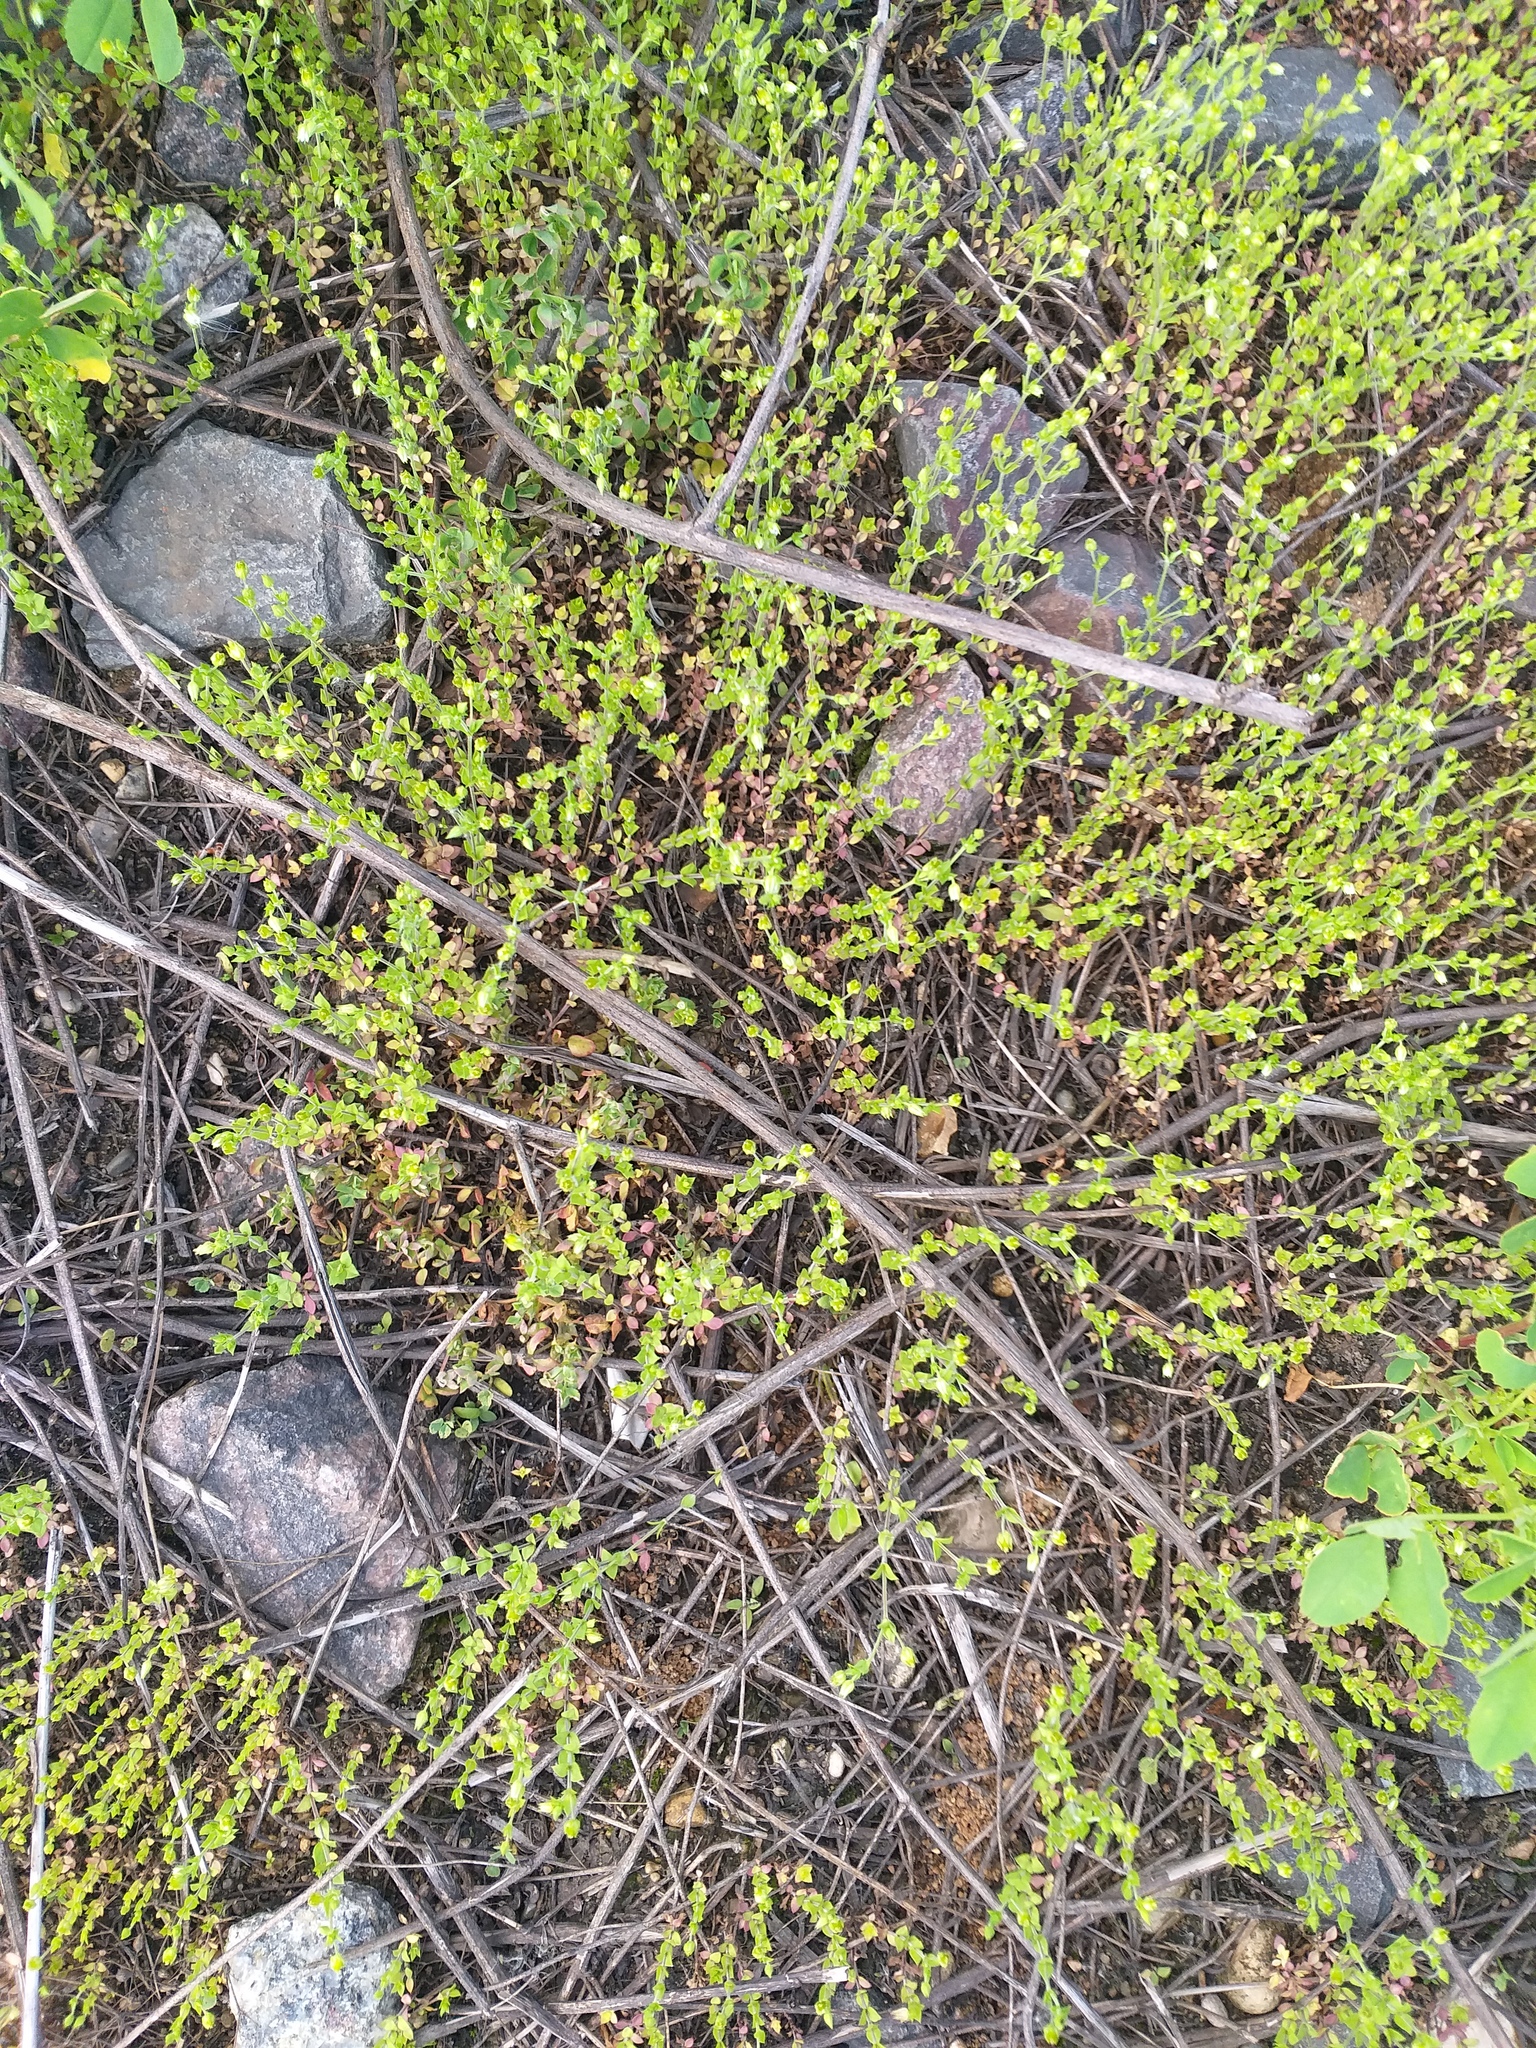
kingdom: Plantae
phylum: Tracheophyta
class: Magnoliopsida
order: Caryophyllales
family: Caryophyllaceae
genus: Arenaria
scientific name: Arenaria serpyllifolia
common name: Thyme-leaved sandwort
